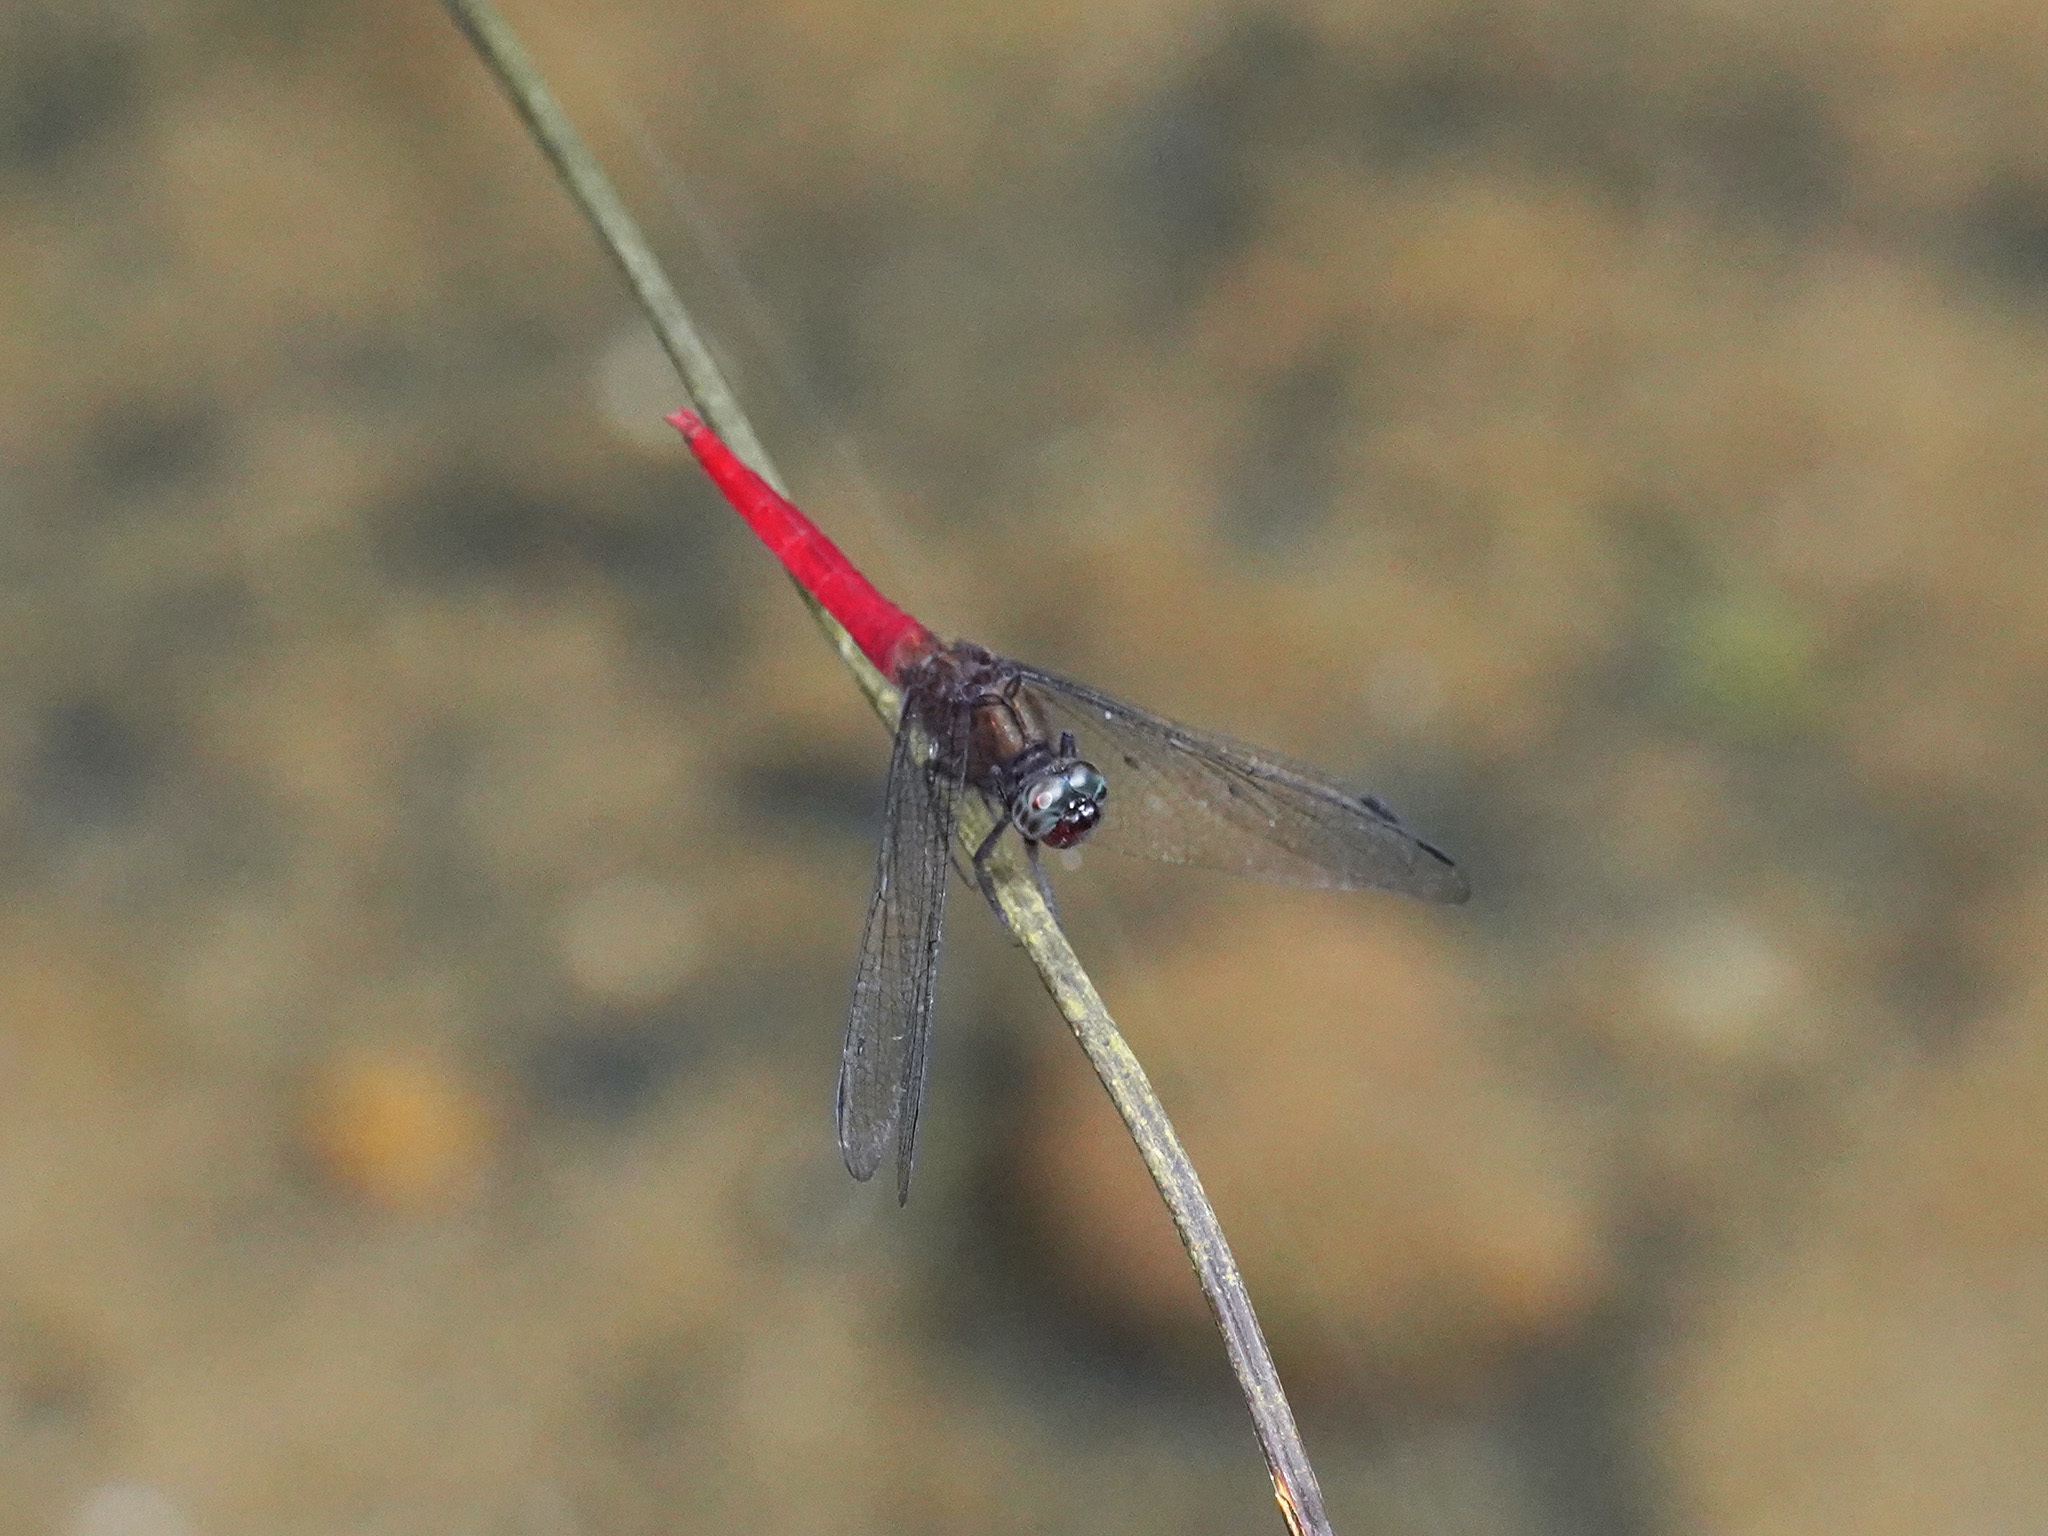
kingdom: Animalia
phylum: Arthropoda
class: Insecta
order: Odonata
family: Libellulidae
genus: Orthetrum
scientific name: Orthetrum chrysis
